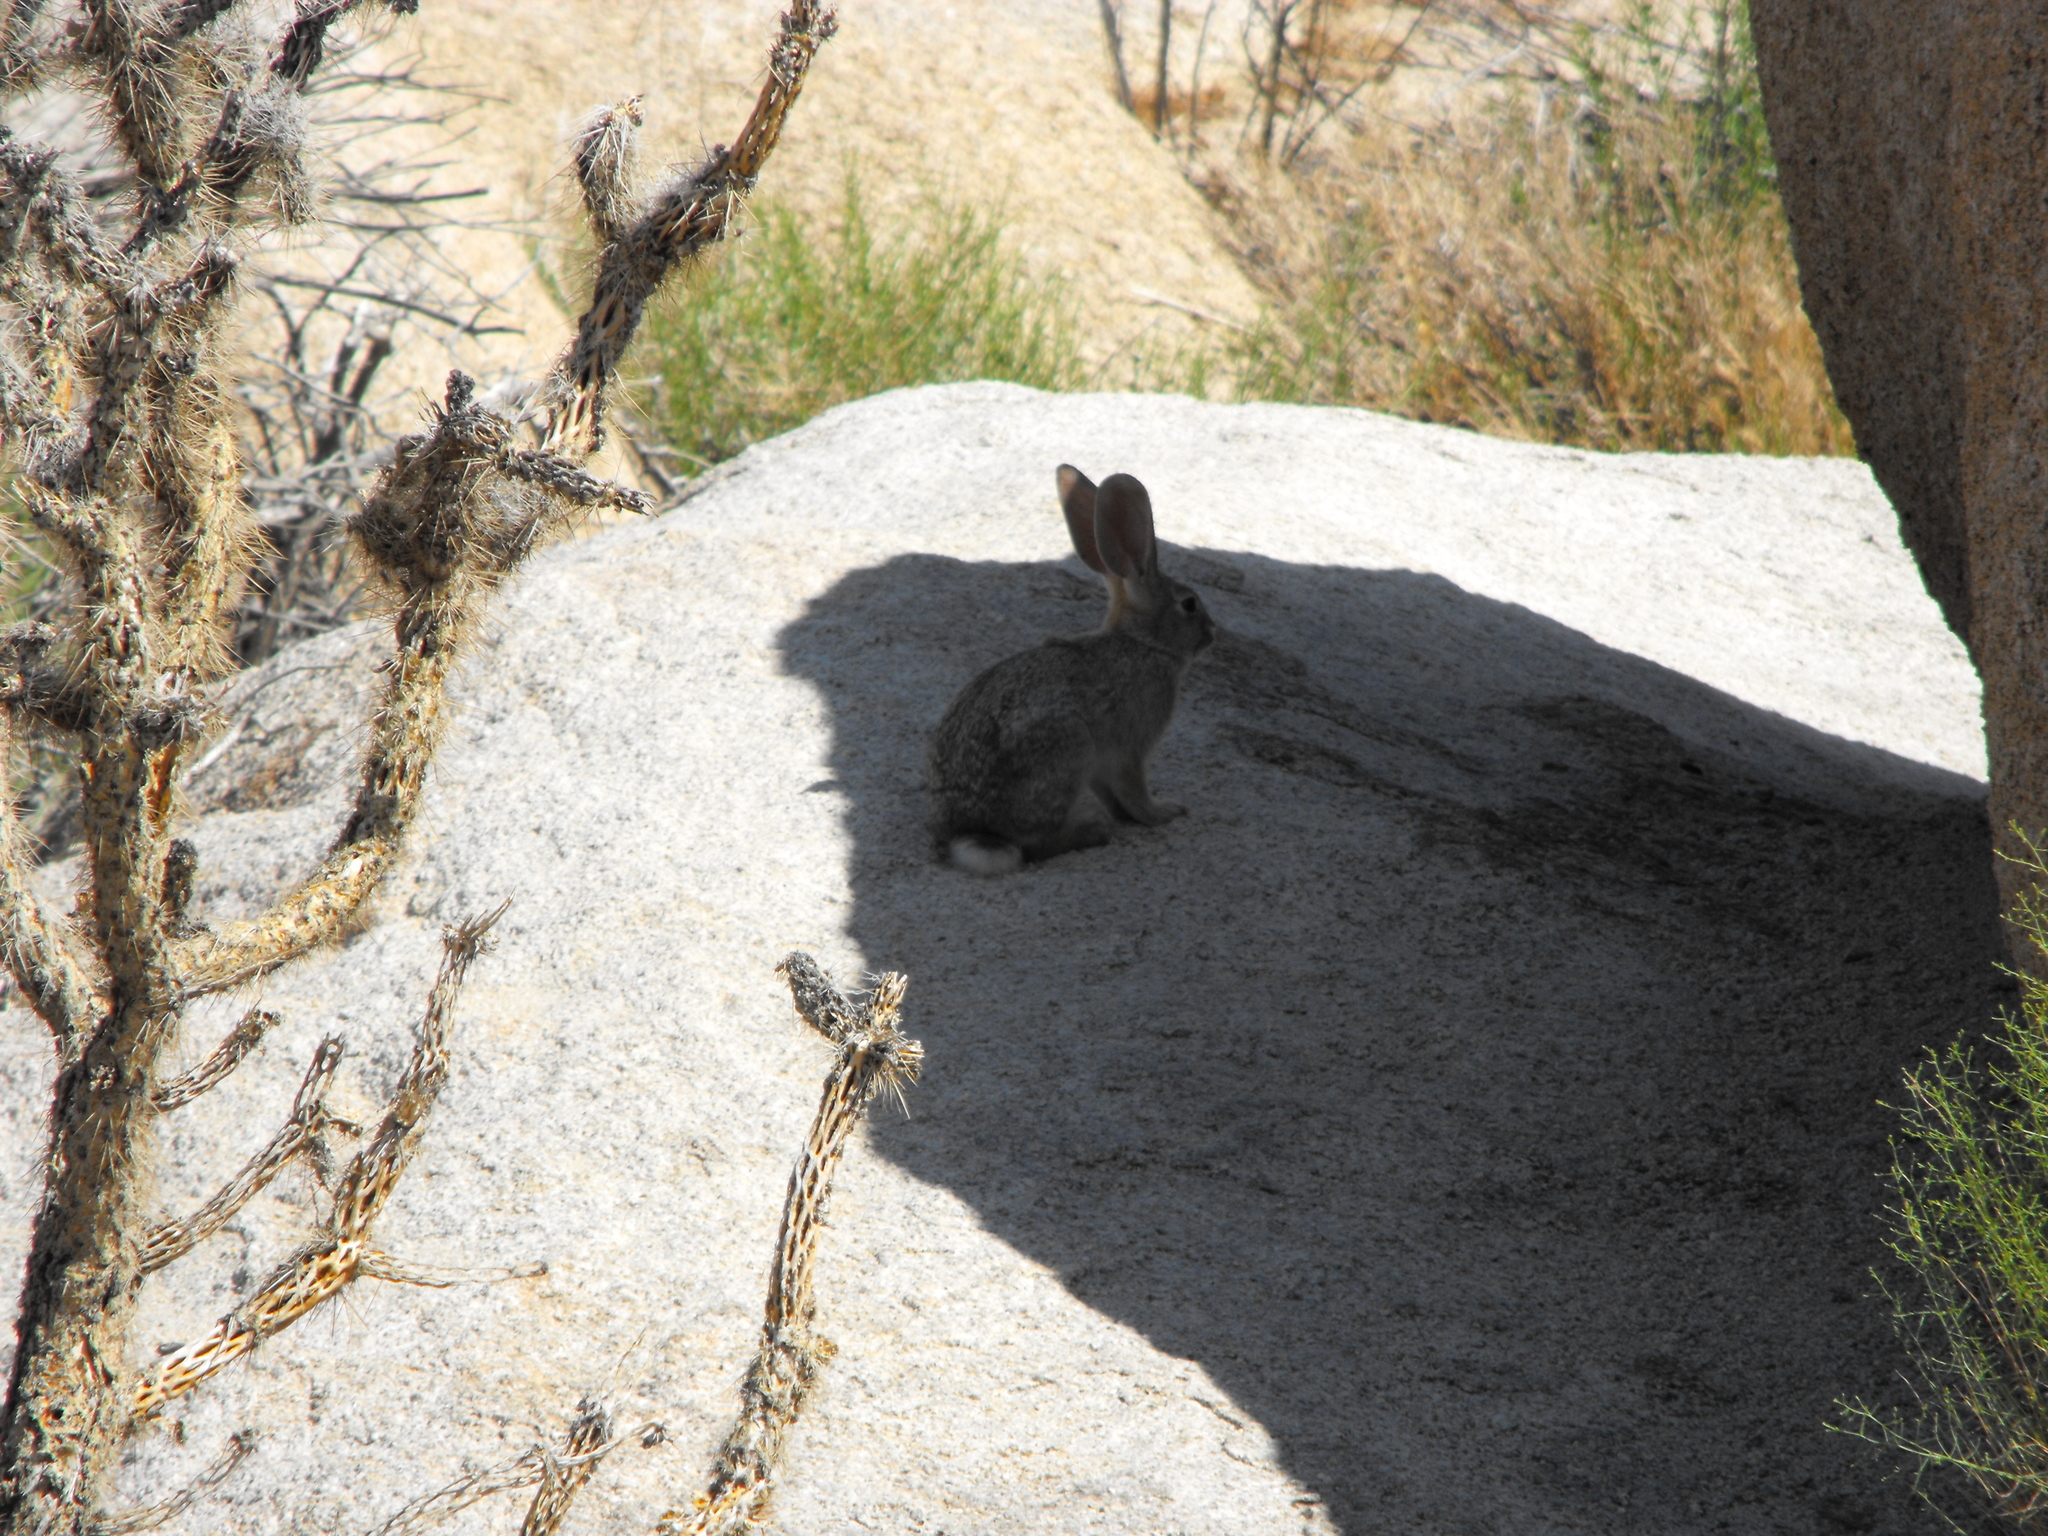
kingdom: Animalia
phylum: Chordata
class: Mammalia
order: Lagomorpha
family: Leporidae
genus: Sylvilagus
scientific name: Sylvilagus audubonii
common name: Desert cottontail
